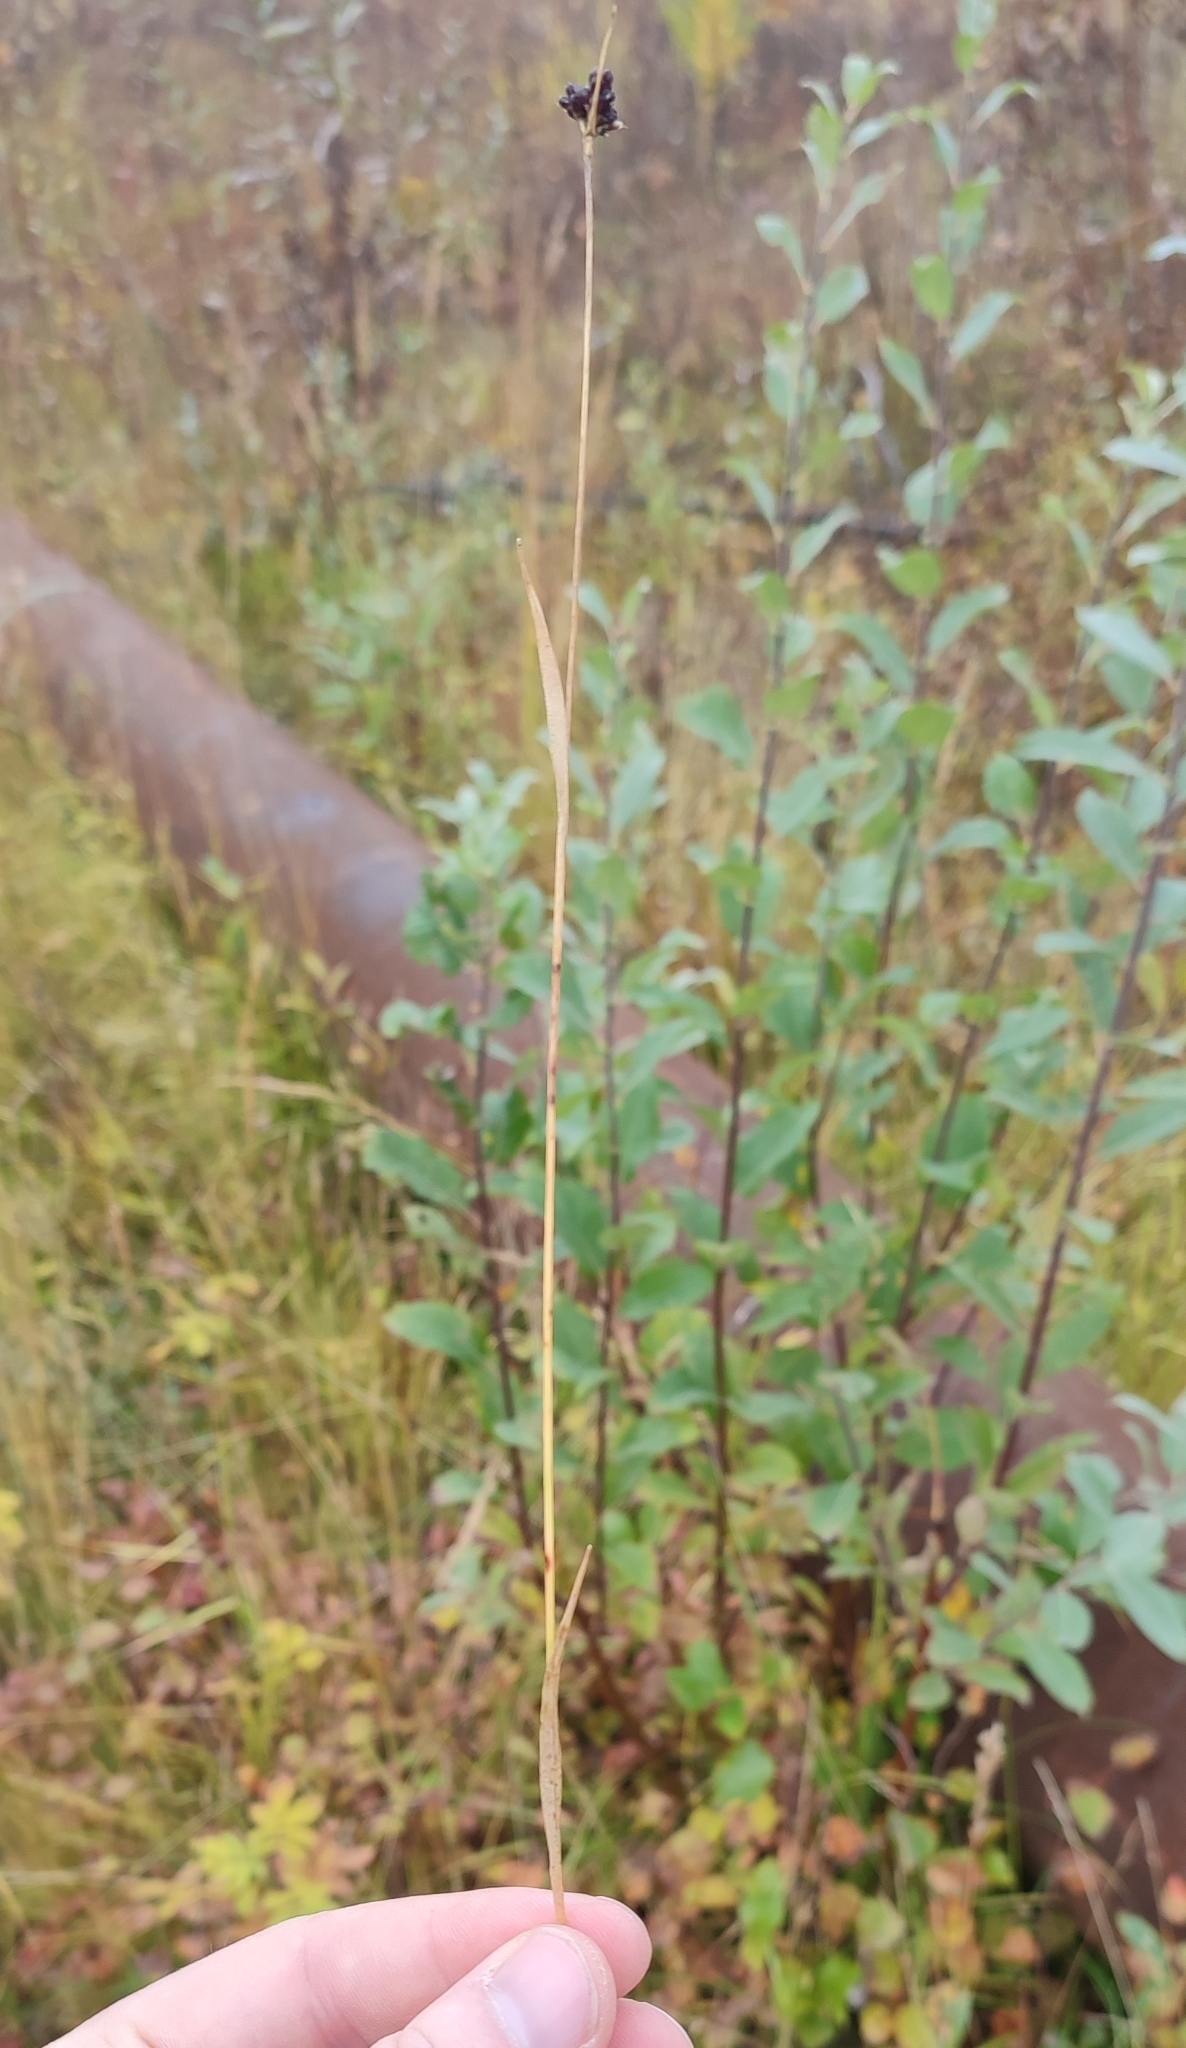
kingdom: Plantae
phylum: Tracheophyta
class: Liliopsida
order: Poales
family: Juncaceae
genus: Luzula
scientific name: Luzula multiflora
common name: Heath wood-rush
